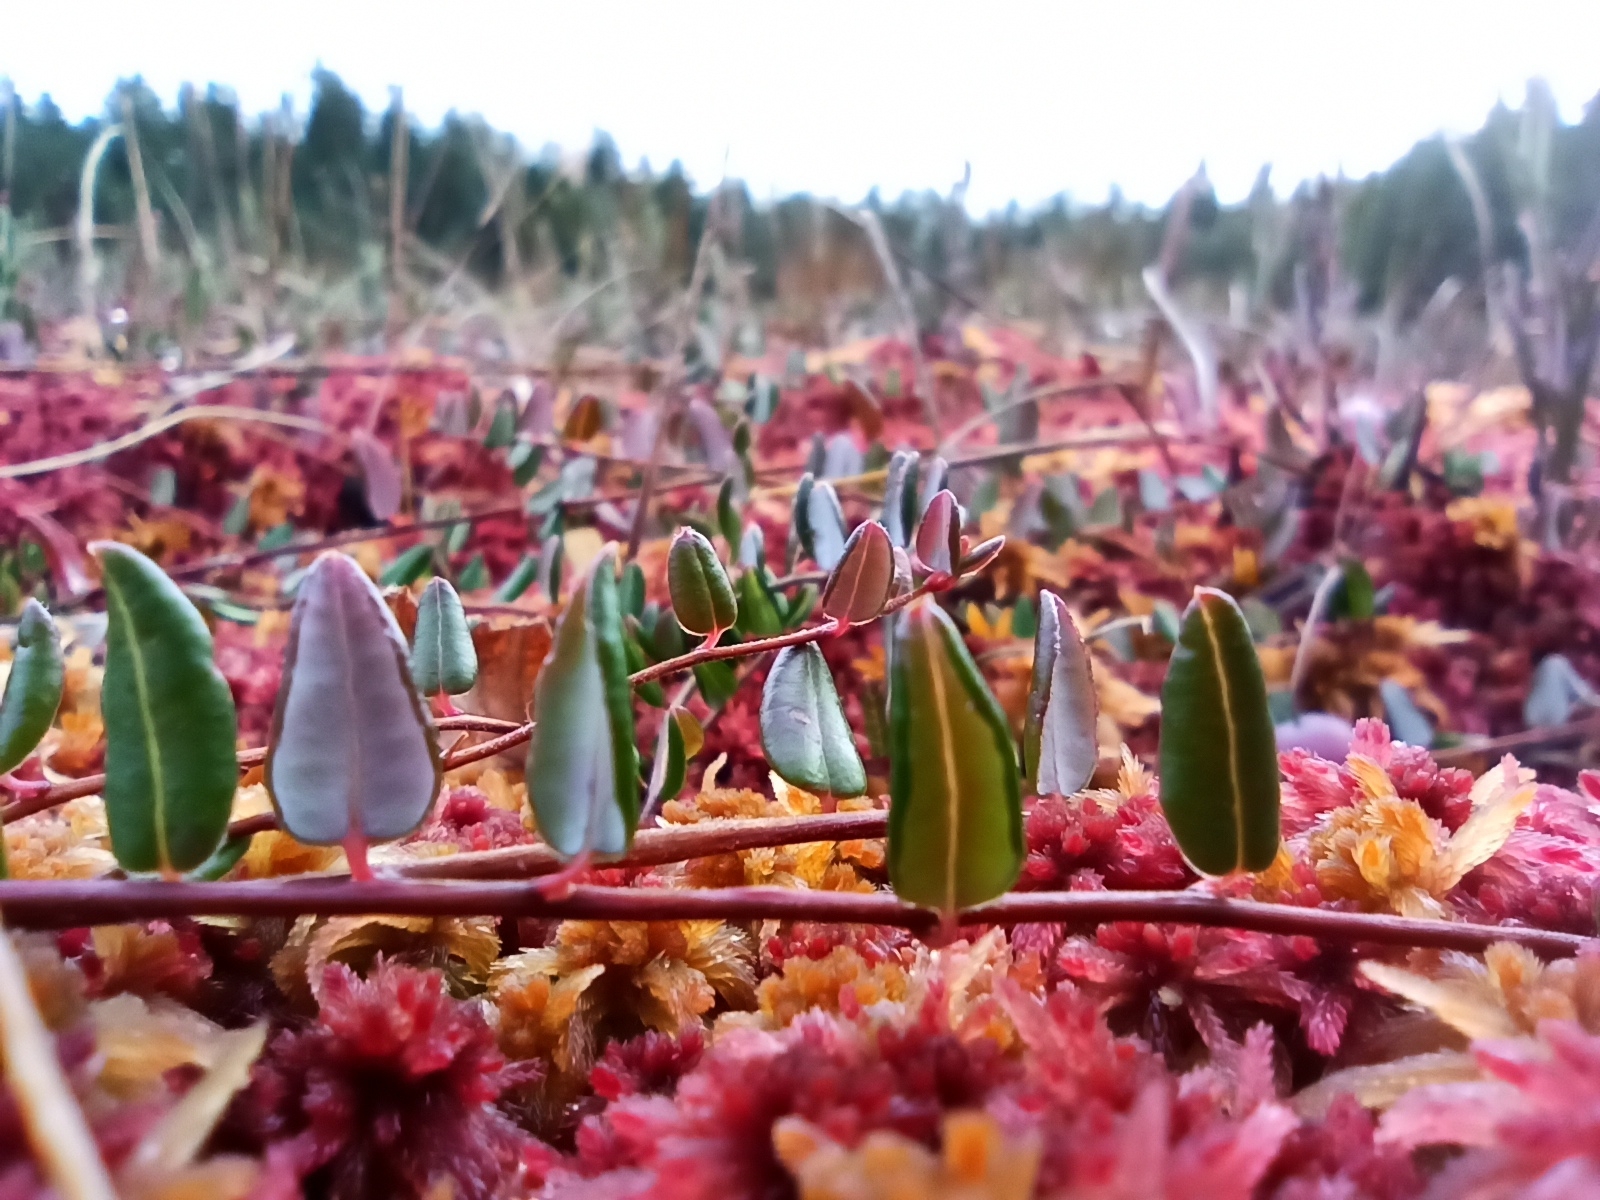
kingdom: Plantae
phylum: Tracheophyta
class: Magnoliopsida
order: Ericales
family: Ericaceae
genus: Vaccinium
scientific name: Vaccinium oxycoccos
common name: Cranberry
